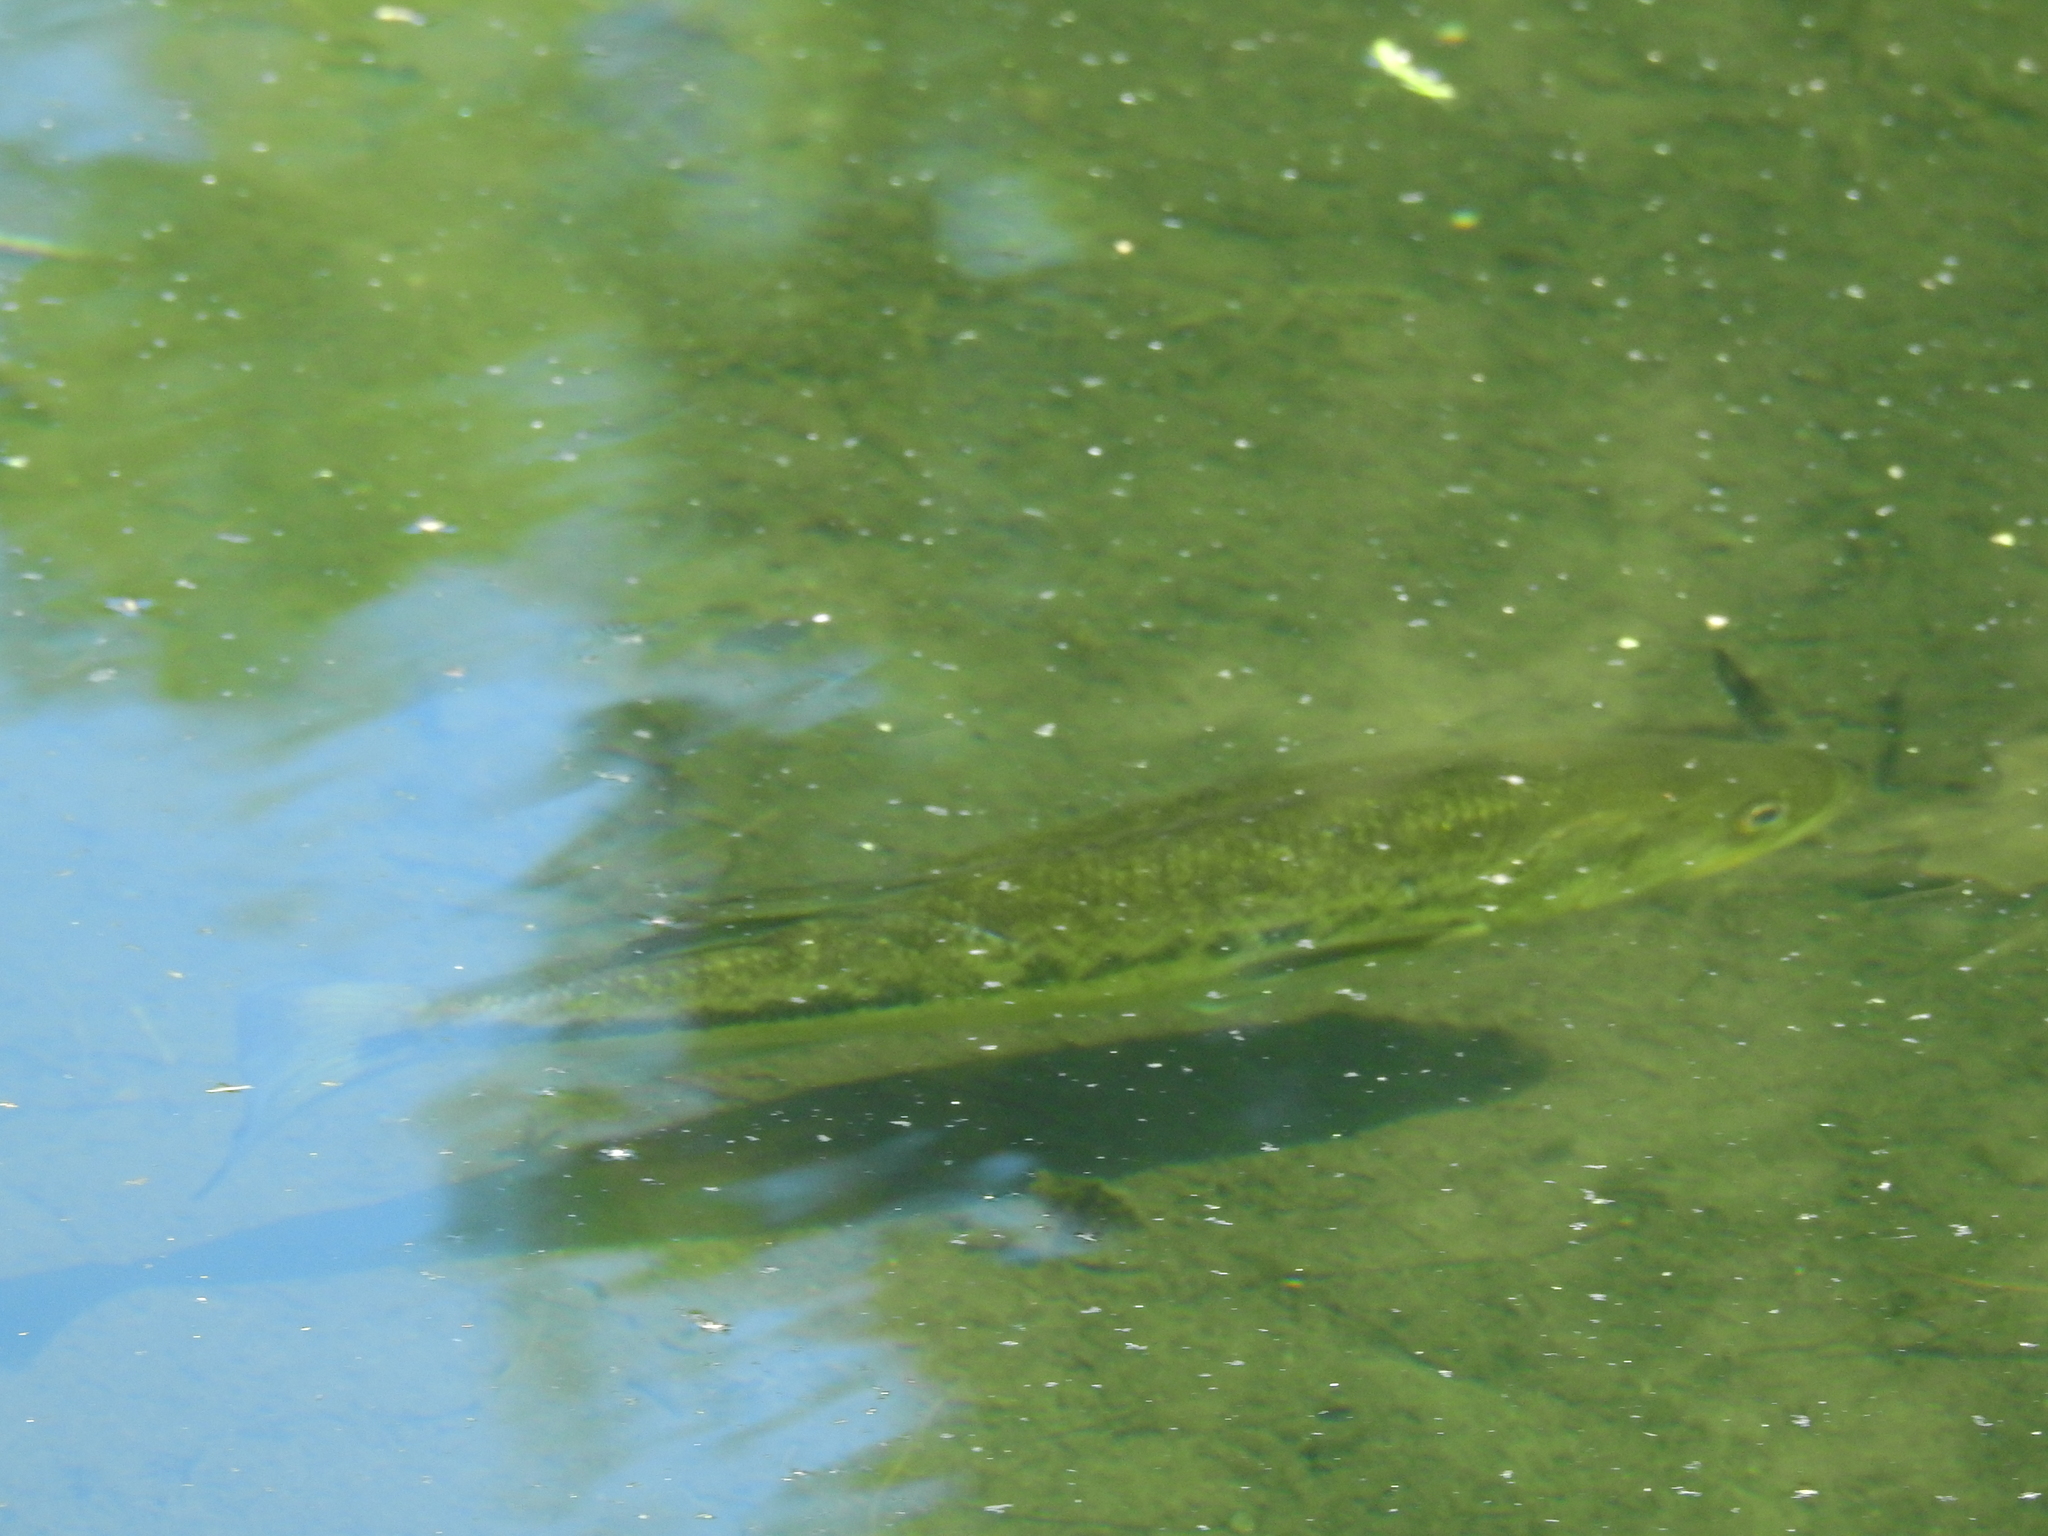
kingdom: Animalia
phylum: Chordata
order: Perciformes
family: Centrarchidae
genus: Micropterus
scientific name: Micropterus
